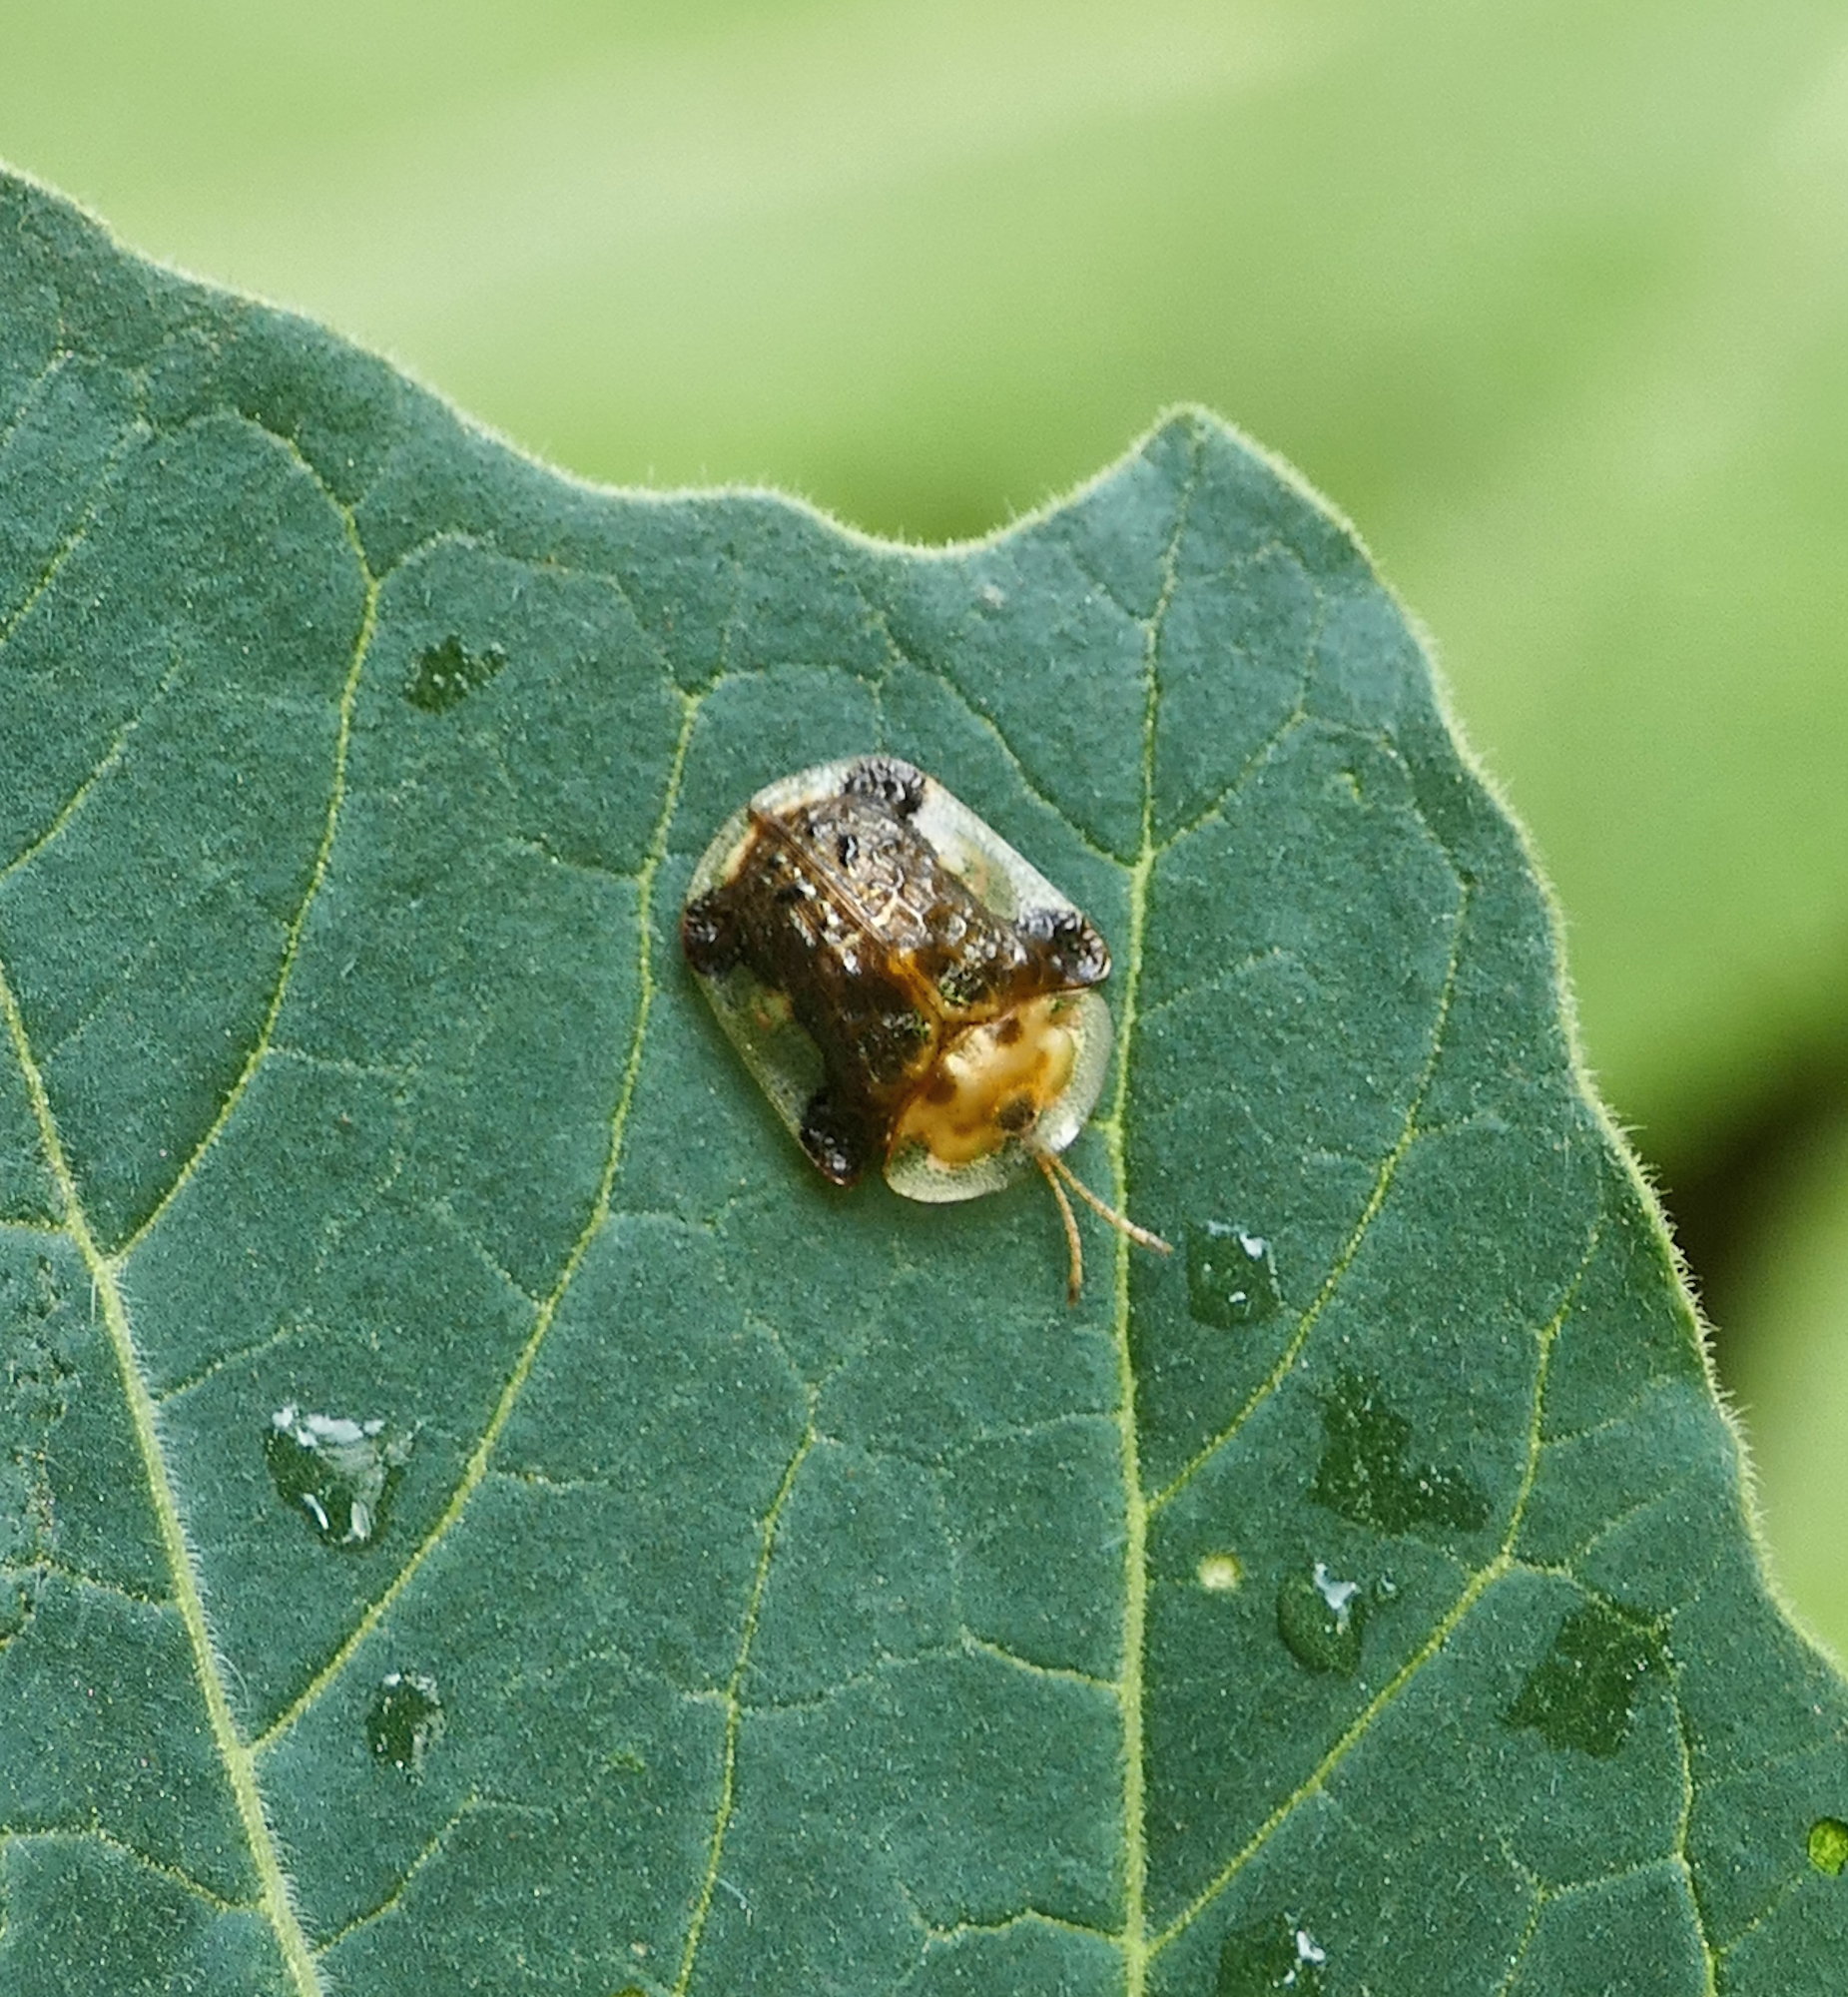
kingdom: Animalia
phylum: Arthropoda
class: Insecta
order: Coleoptera
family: Chrysomelidae
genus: Helocassis
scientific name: Helocassis testudinaria
